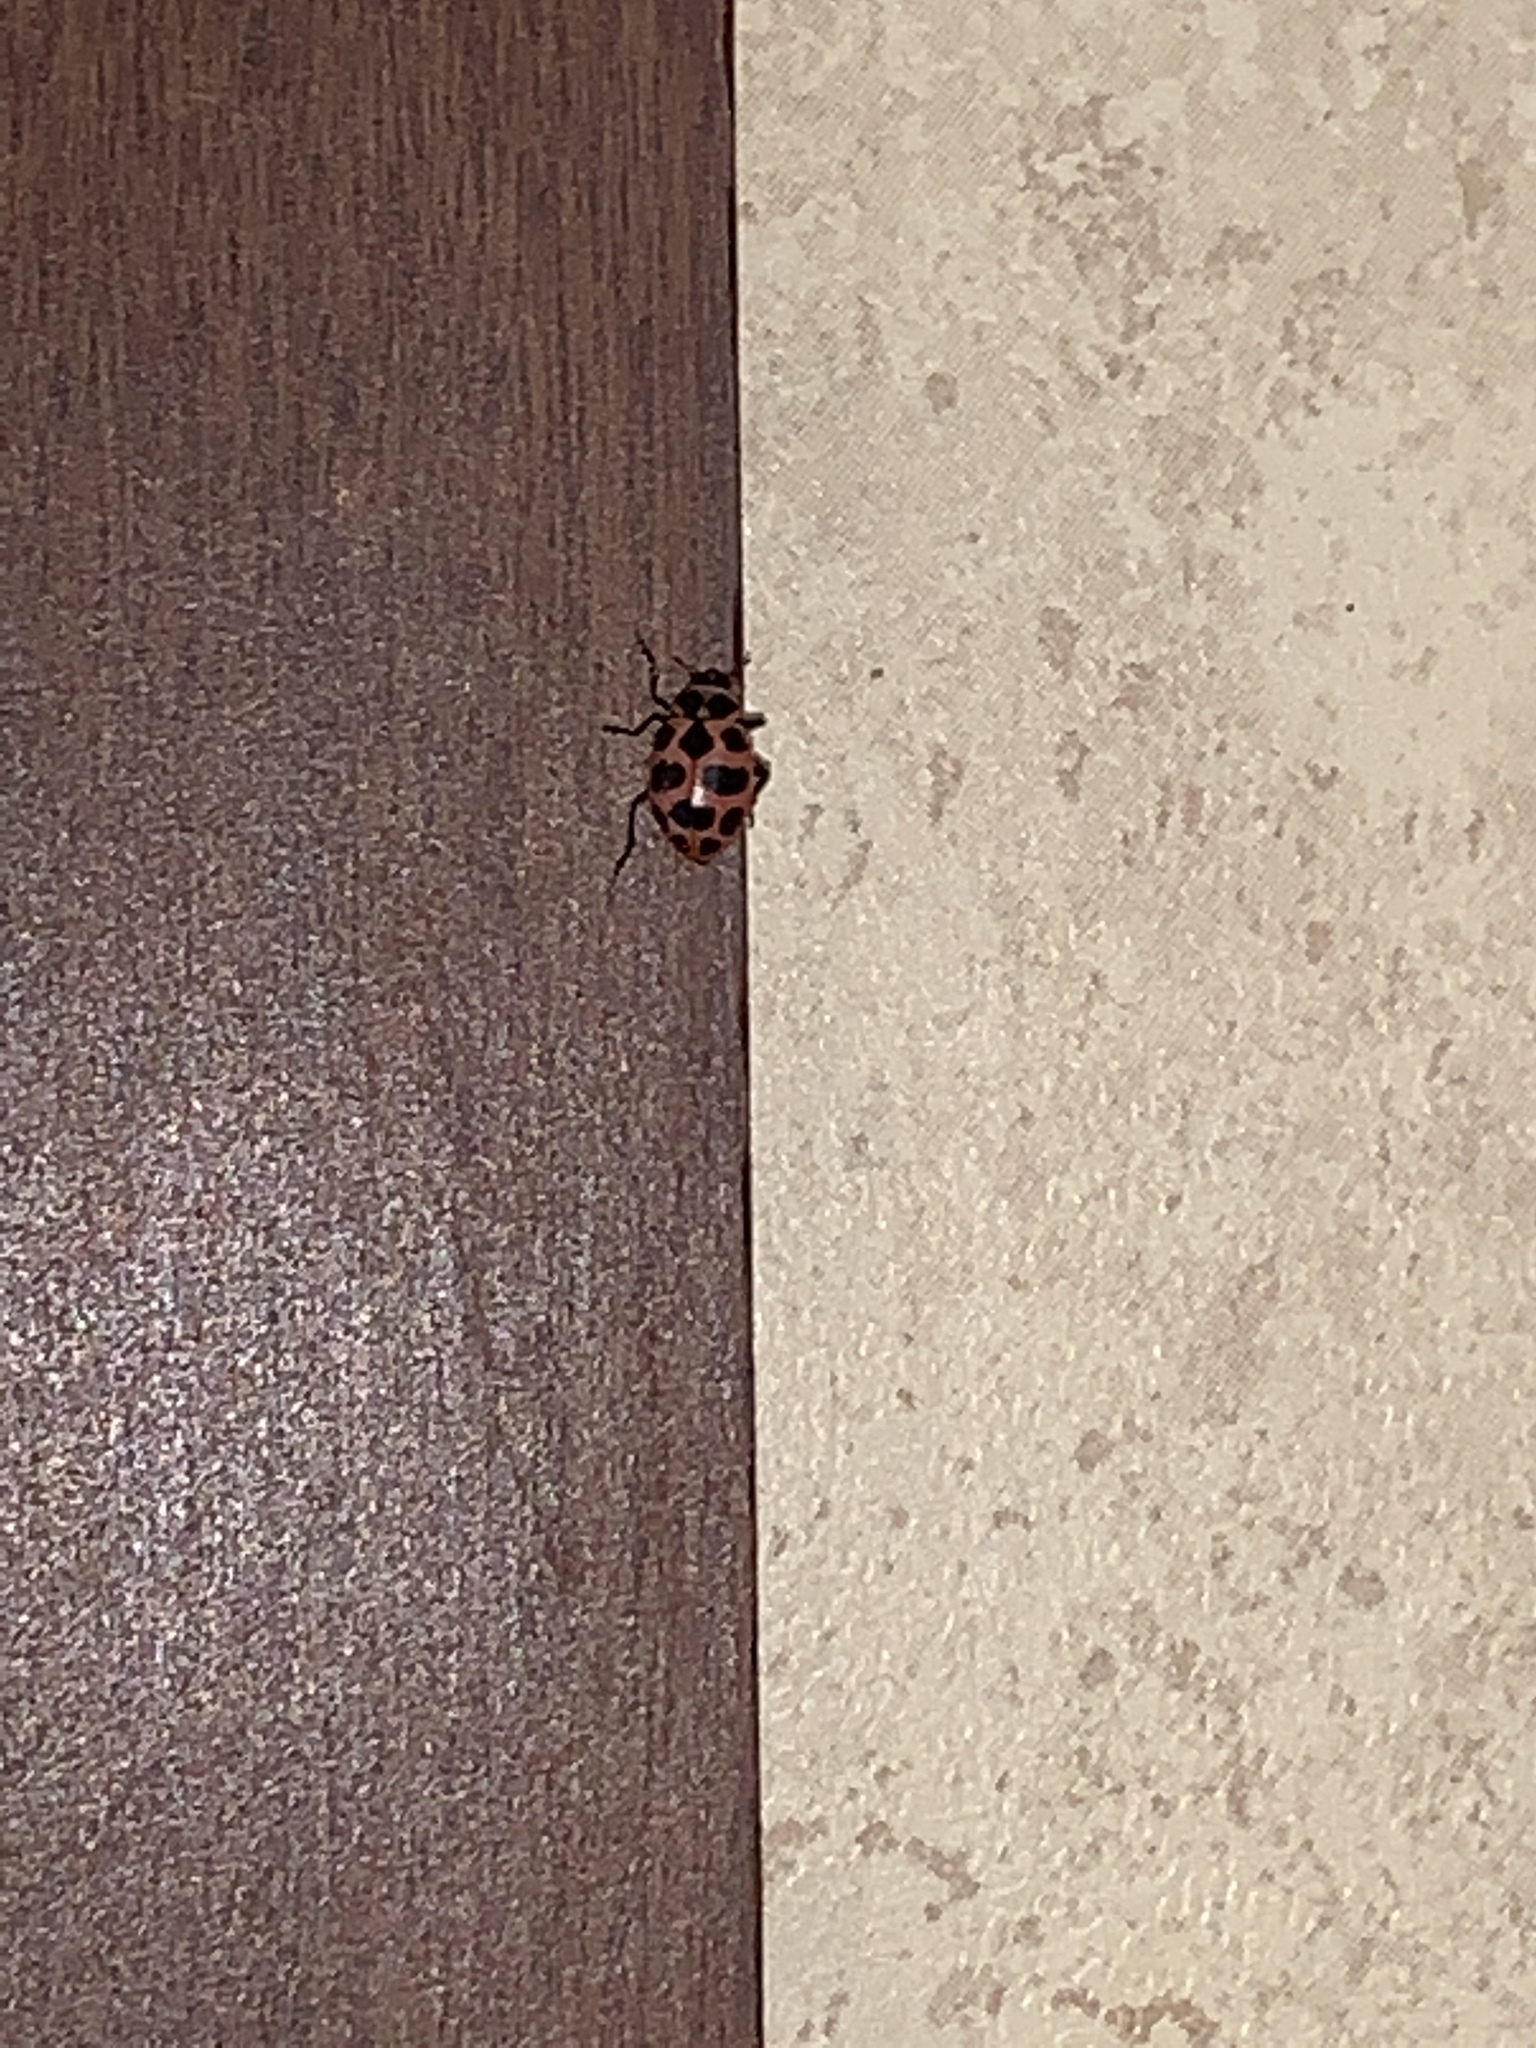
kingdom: Animalia
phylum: Arthropoda
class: Insecta
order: Coleoptera
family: Coccinellidae
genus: Coleomegilla
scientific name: Coleomegilla maculata
